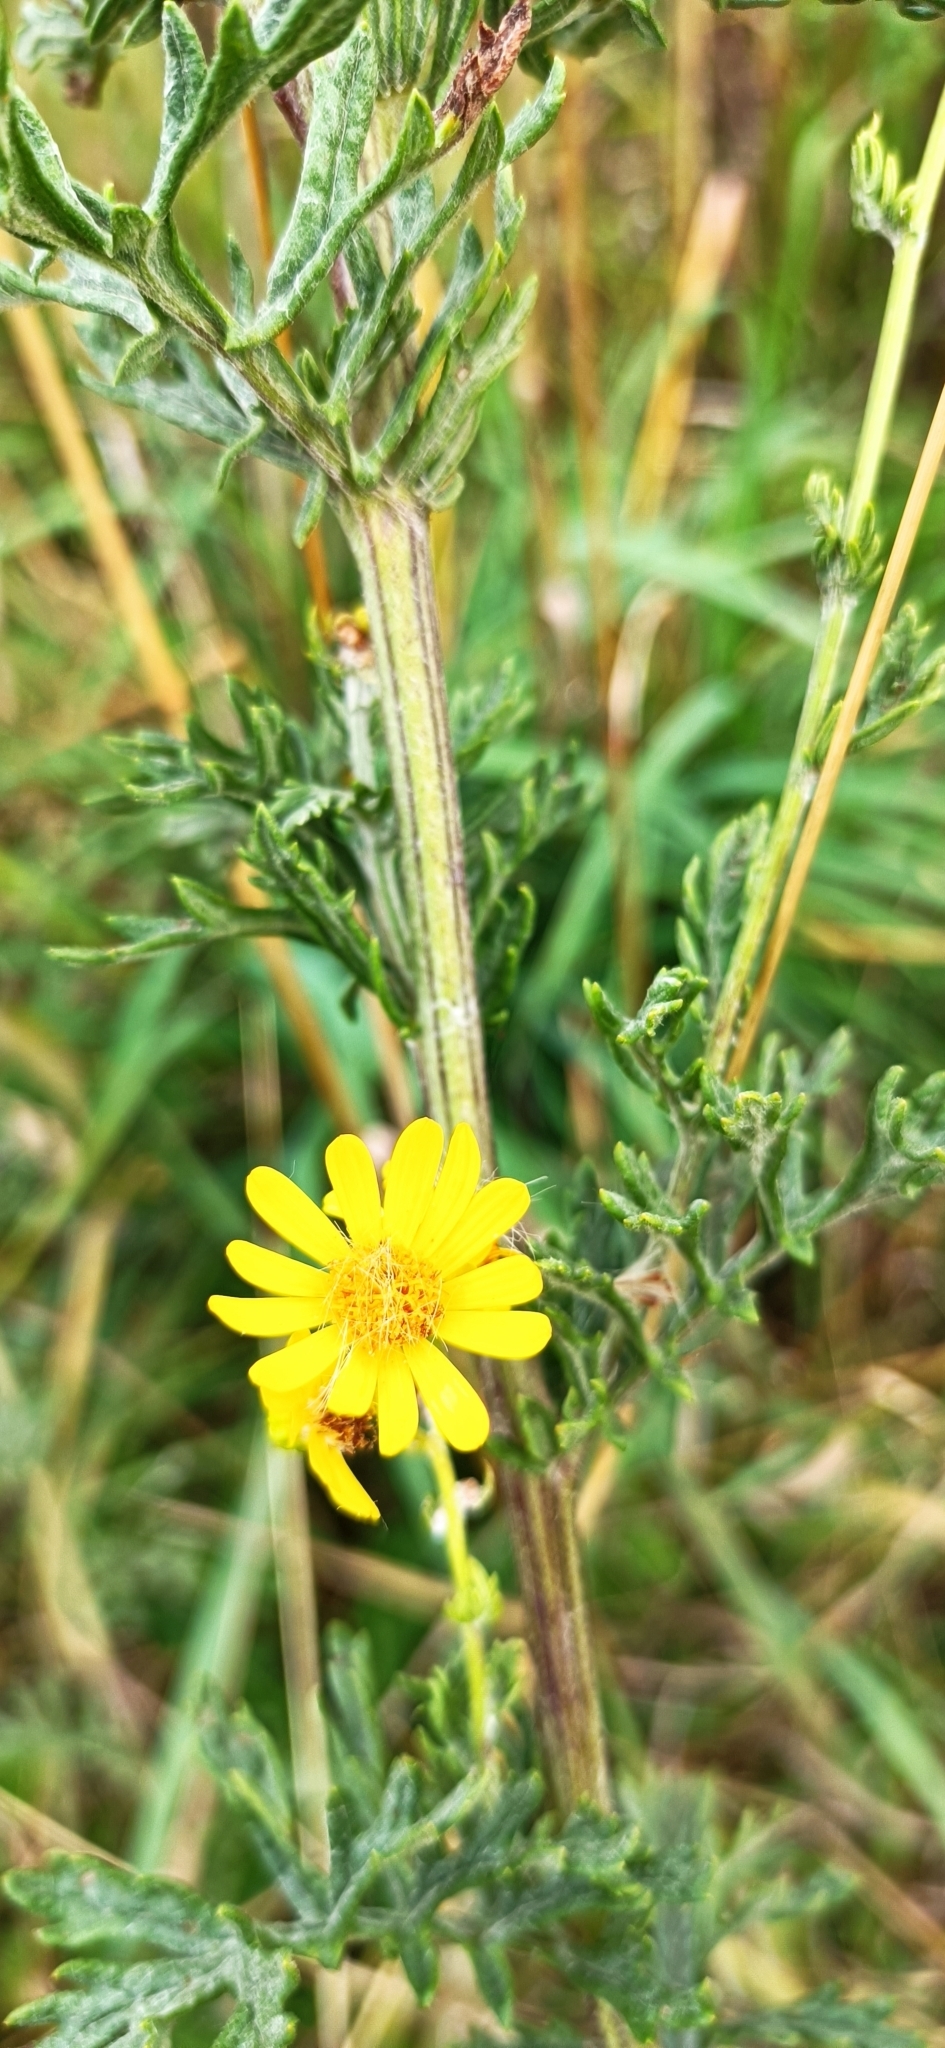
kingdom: Plantae
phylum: Tracheophyta
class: Magnoliopsida
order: Asterales
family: Asteraceae
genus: Jacobaea
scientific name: Jacobaea erucifolia
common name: Hoary ragwort
